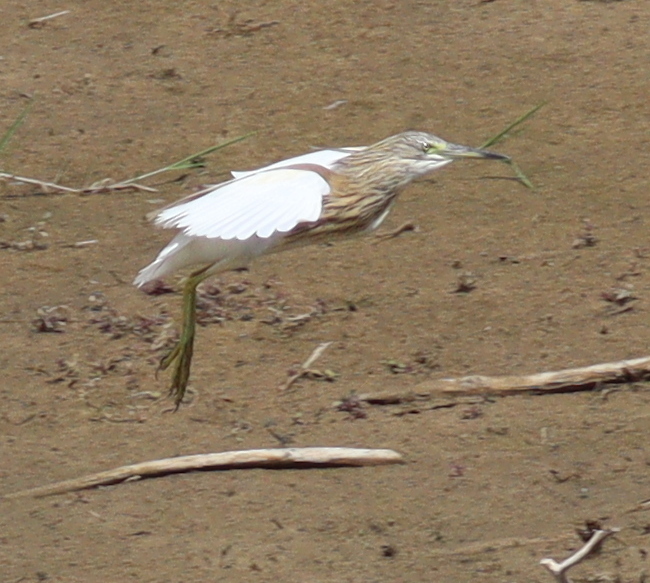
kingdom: Animalia
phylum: Chordata
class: Aves
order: Pelecaniformes
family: Ardeidae
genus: Ardeola
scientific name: Ardeola ralloides
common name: Squacco heron
